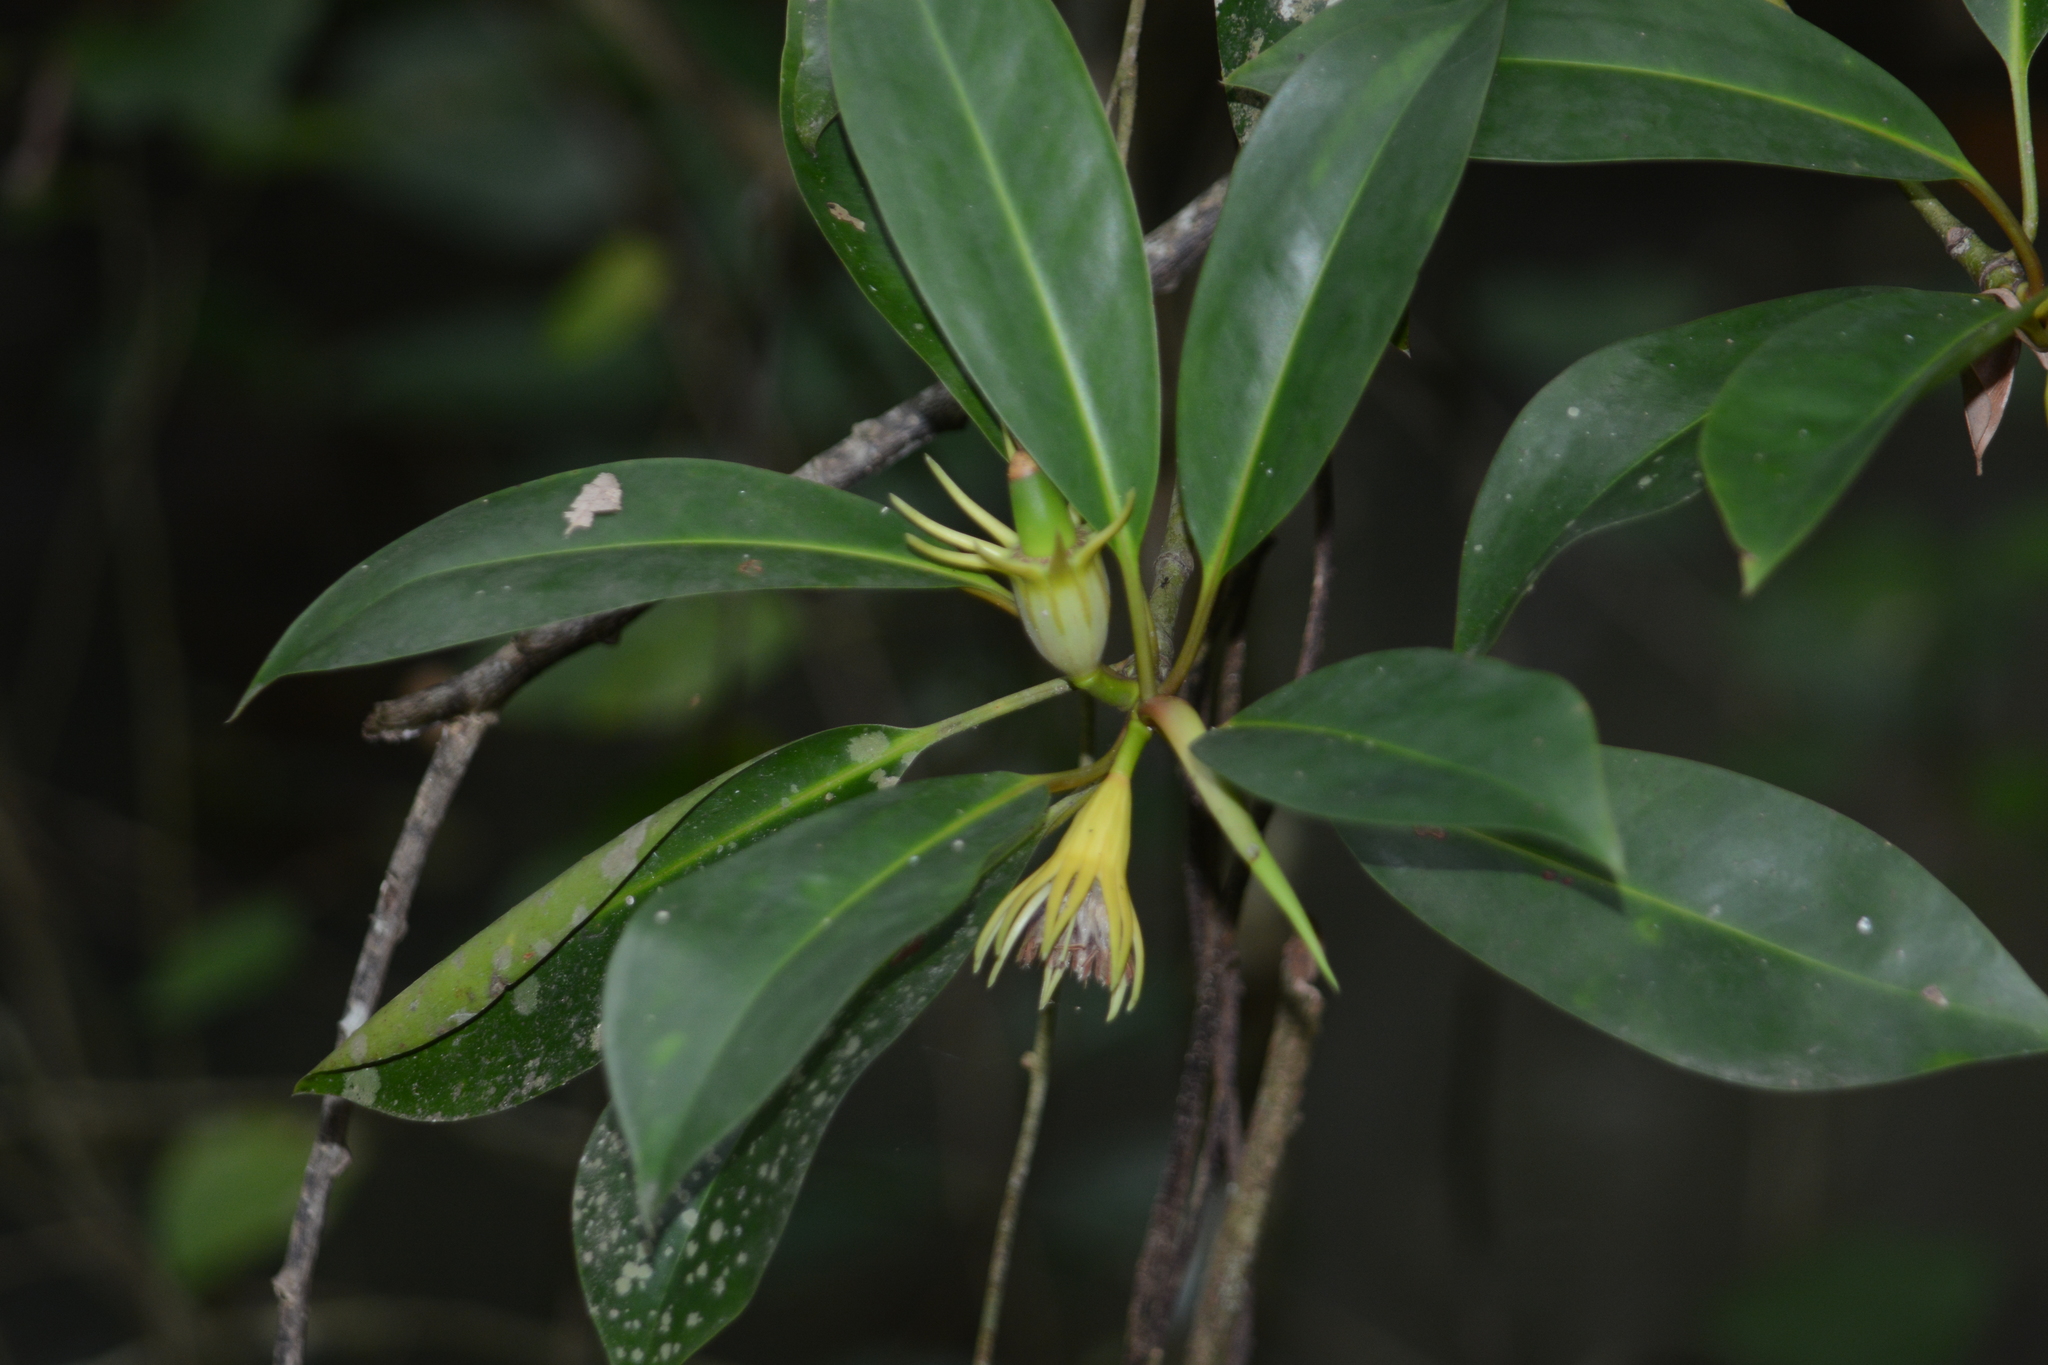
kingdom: Plantae
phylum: Tracheophyta
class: Magnoliopsida
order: Malpighiales
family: Rhizophoraceae
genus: Bruguiera
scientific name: Bruguiera gymnorhiza
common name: Oriental mangrove
